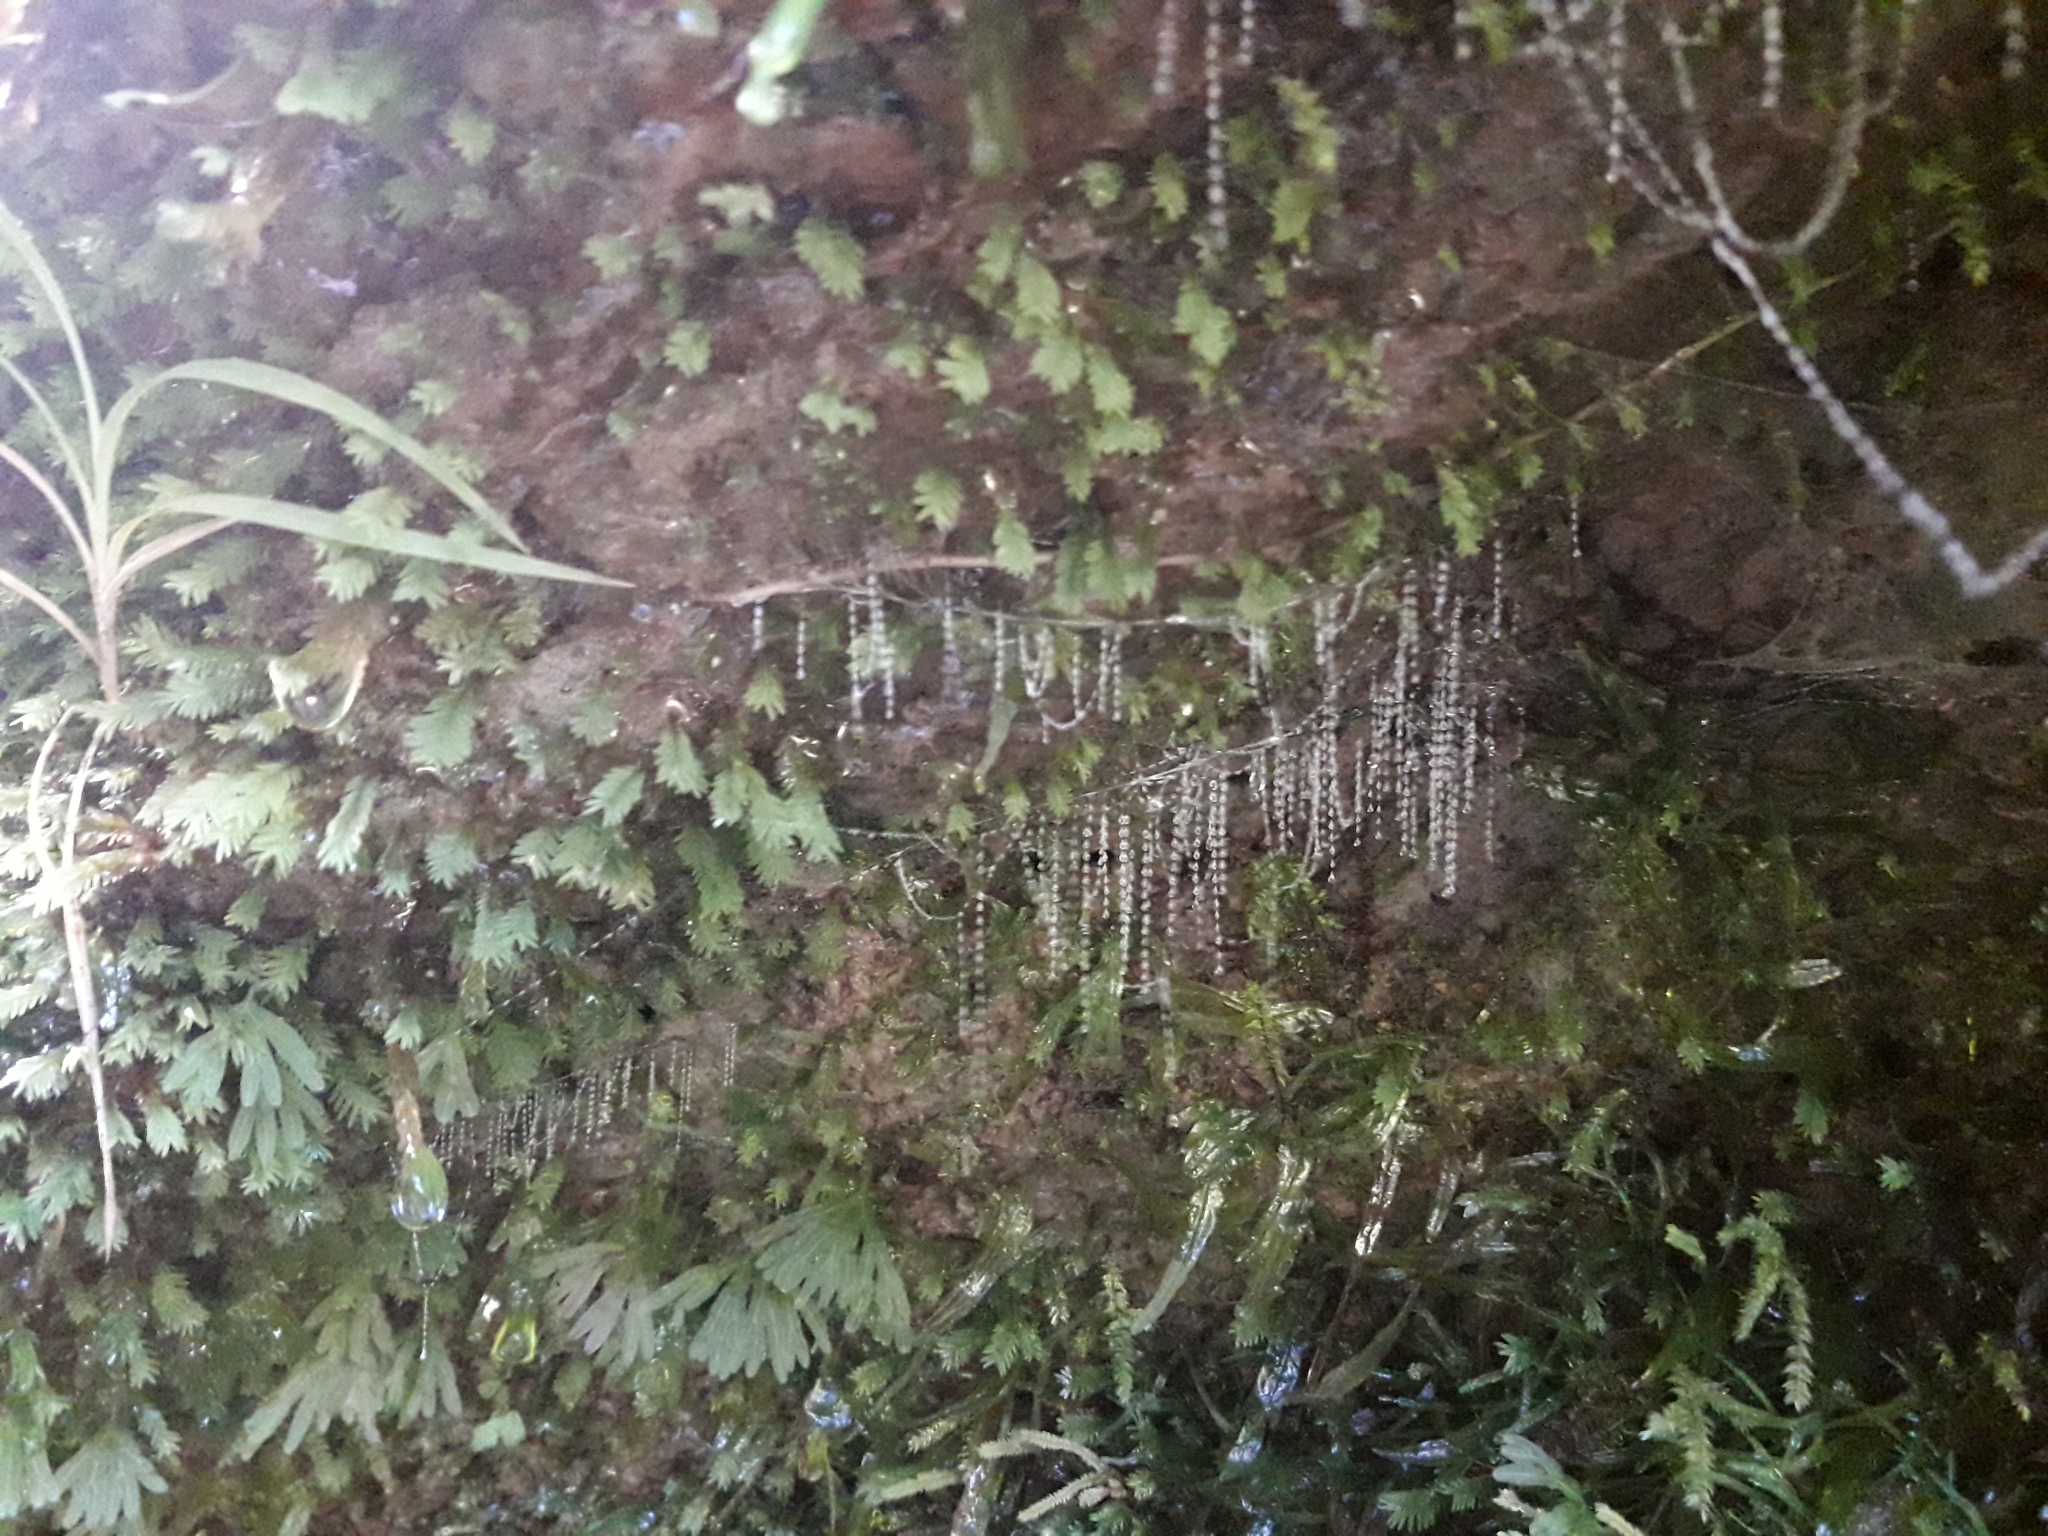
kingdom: Animalia
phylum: Arthropoda
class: Insecta
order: Diptera
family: Keroplatidae
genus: Arachnocampa
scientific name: Arachnocampa luminosa
